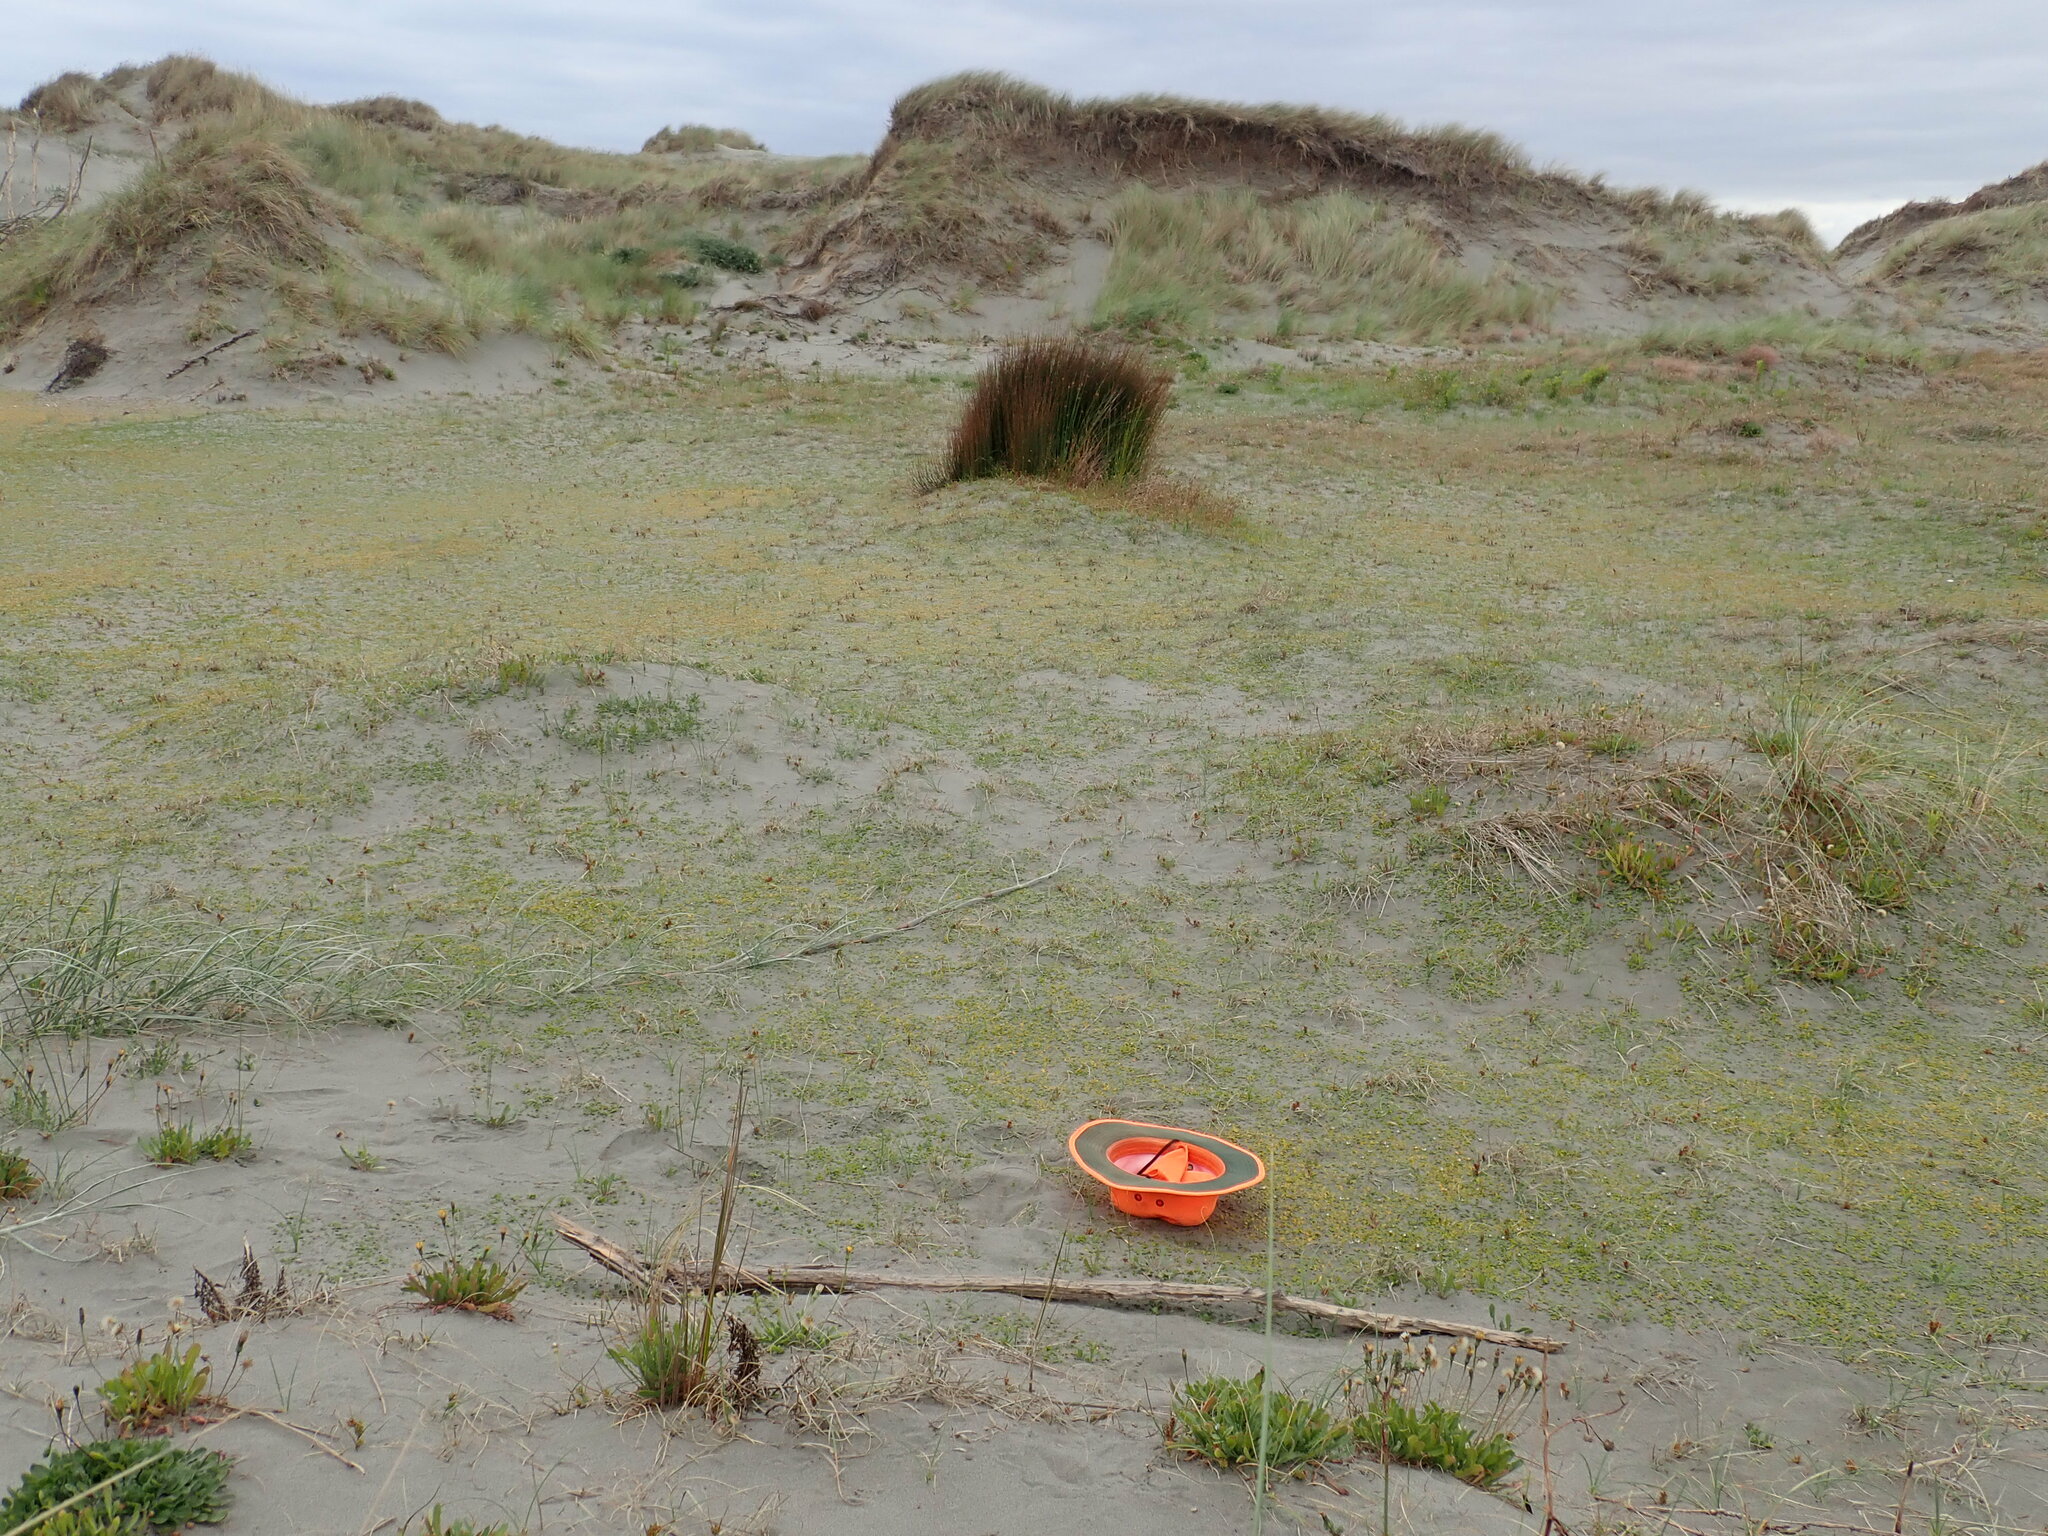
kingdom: Animalia
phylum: Arthropoda
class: Arachnida
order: Araneae
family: Lycosidae
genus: Anoteropsis
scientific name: Anoteropsis litoralis
